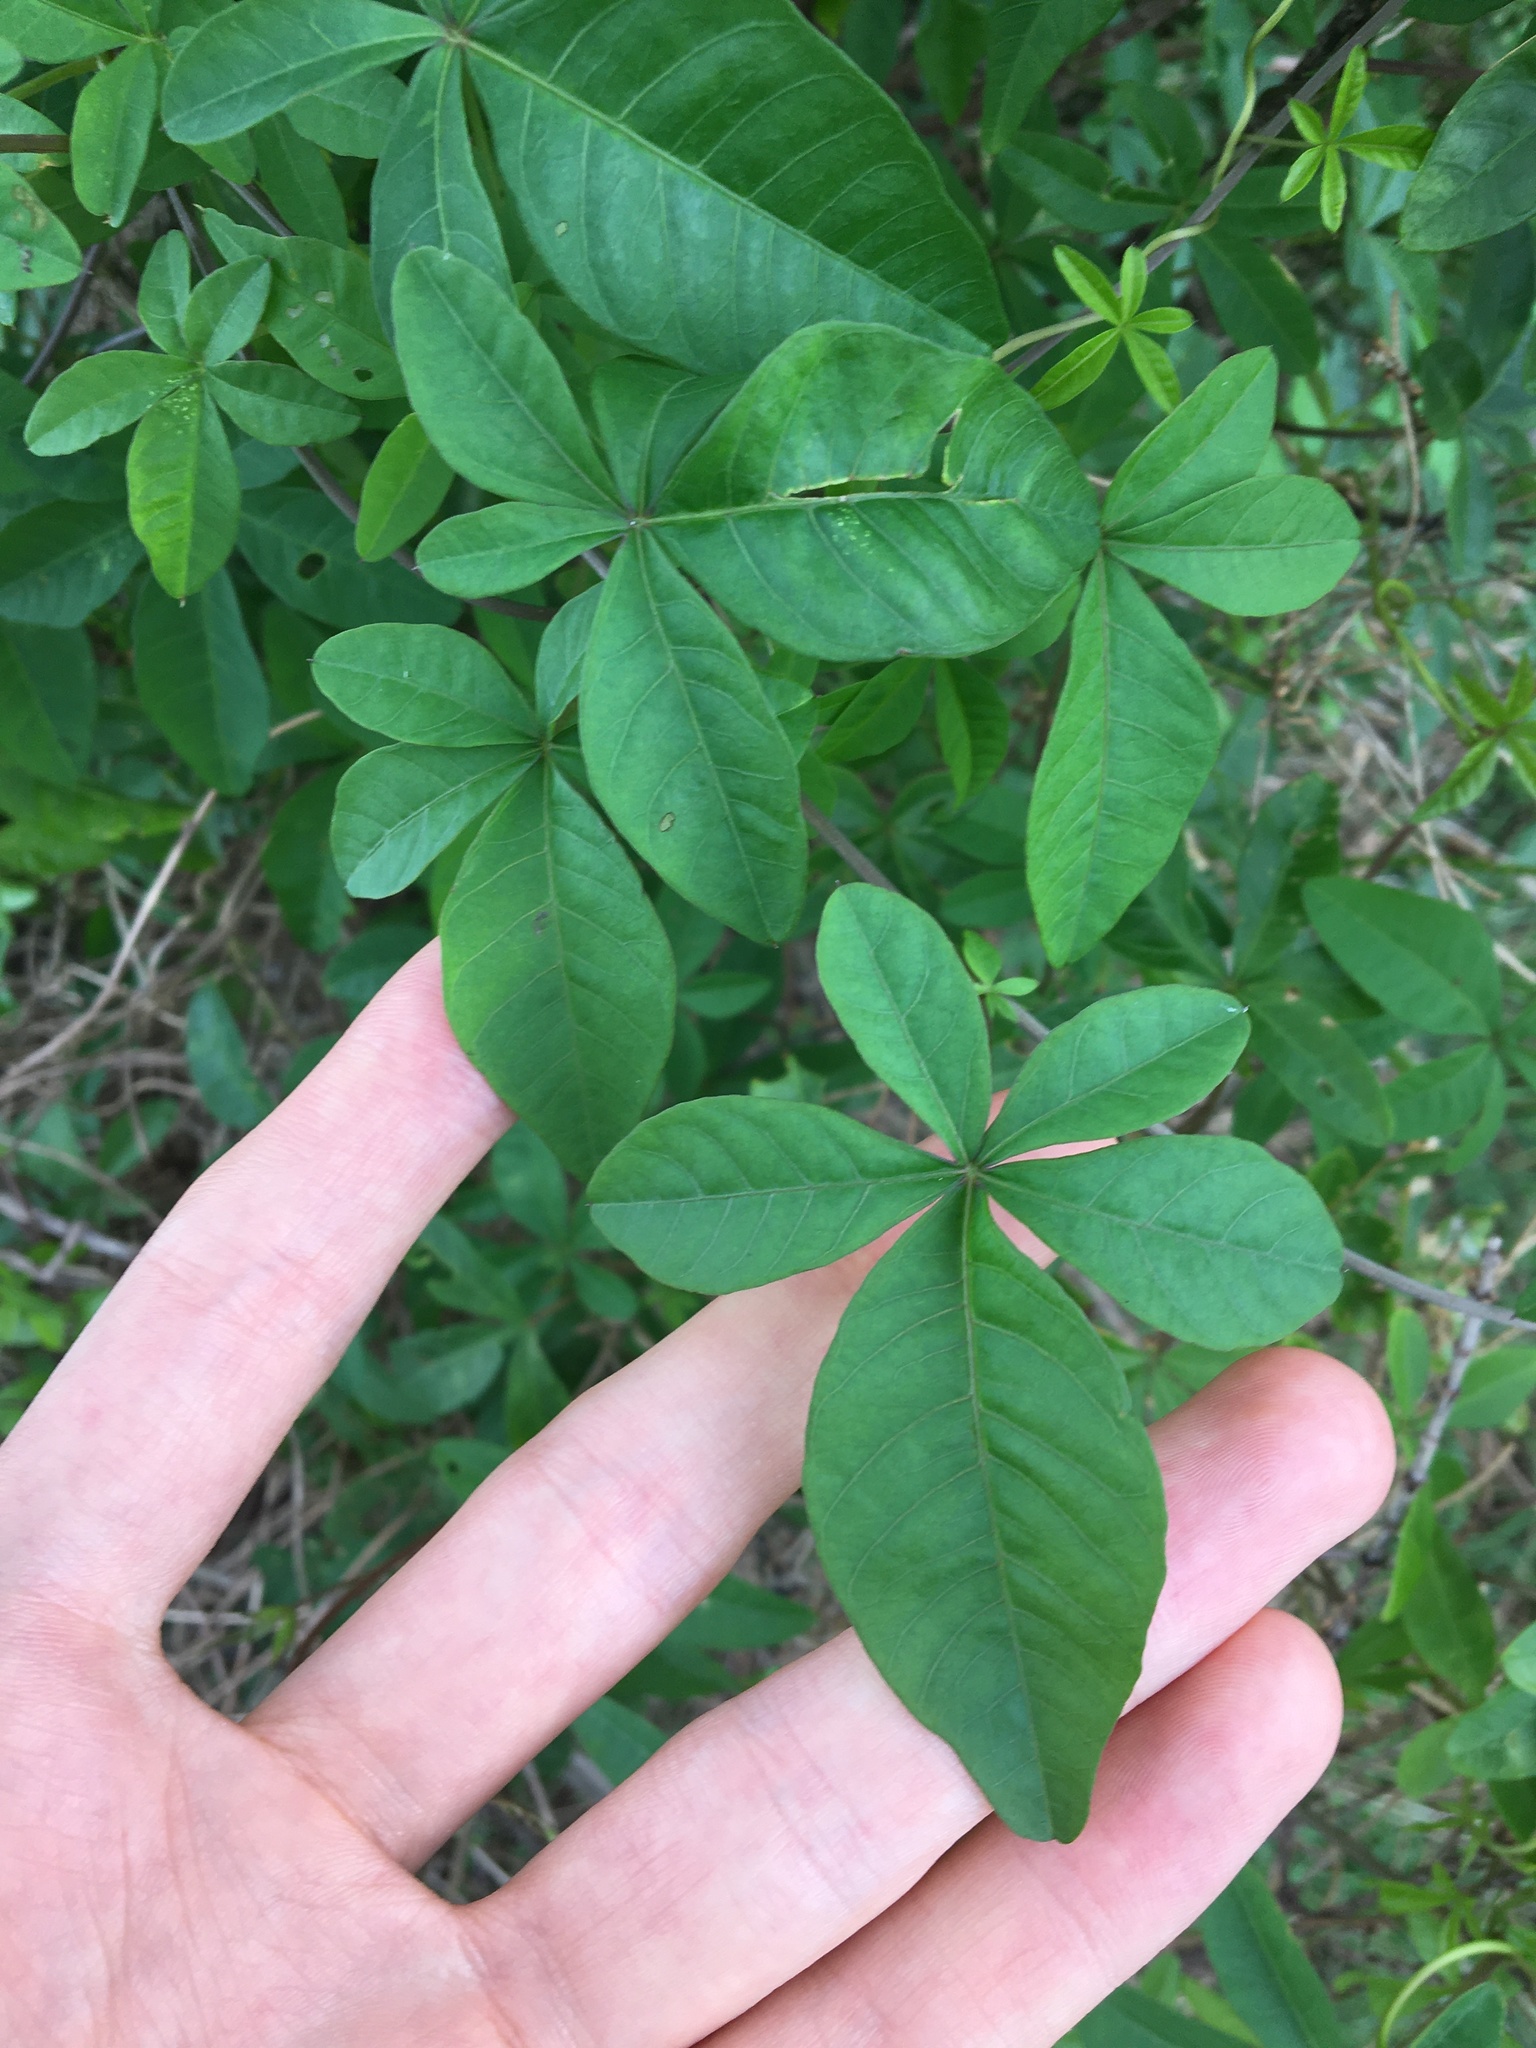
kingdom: Plantae
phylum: Tracheophyta
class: Magnoliopsida
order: Solanales
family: Convolvulaceae
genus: Ipomoea
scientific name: Ipomoea cairica
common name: Mile a minute vine
